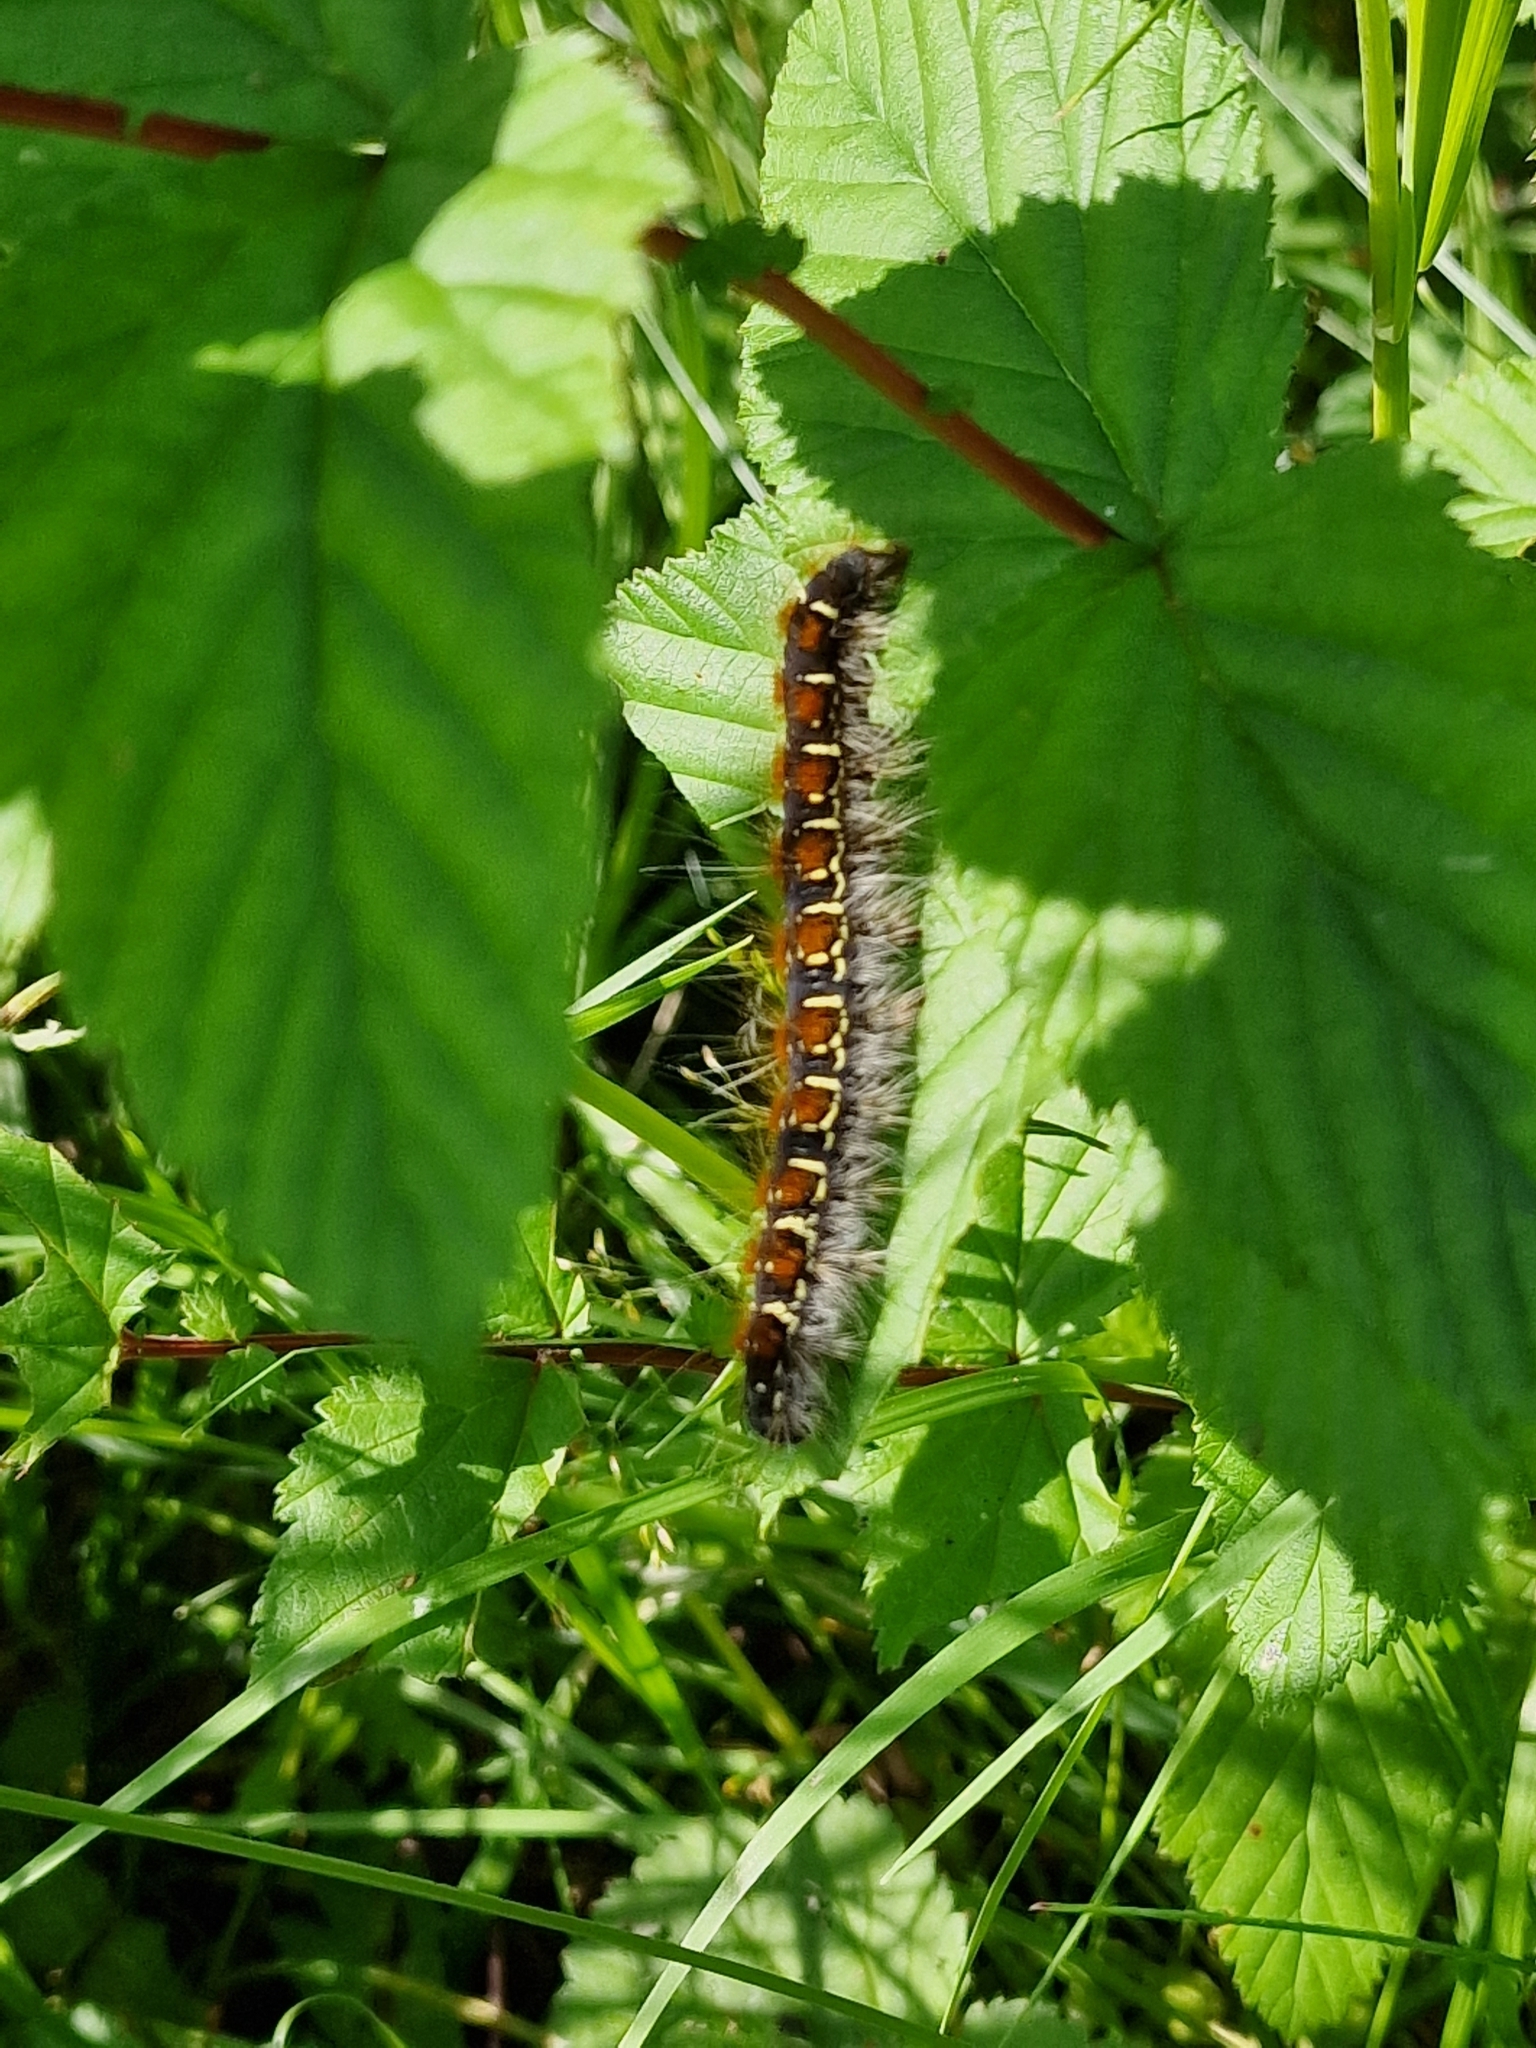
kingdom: Animalia
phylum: Arthropoda
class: Insecta
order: Lepidoptera
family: Lasiocampidae
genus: Eriogaster
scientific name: Eriogaster lanestris
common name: Small eggar
